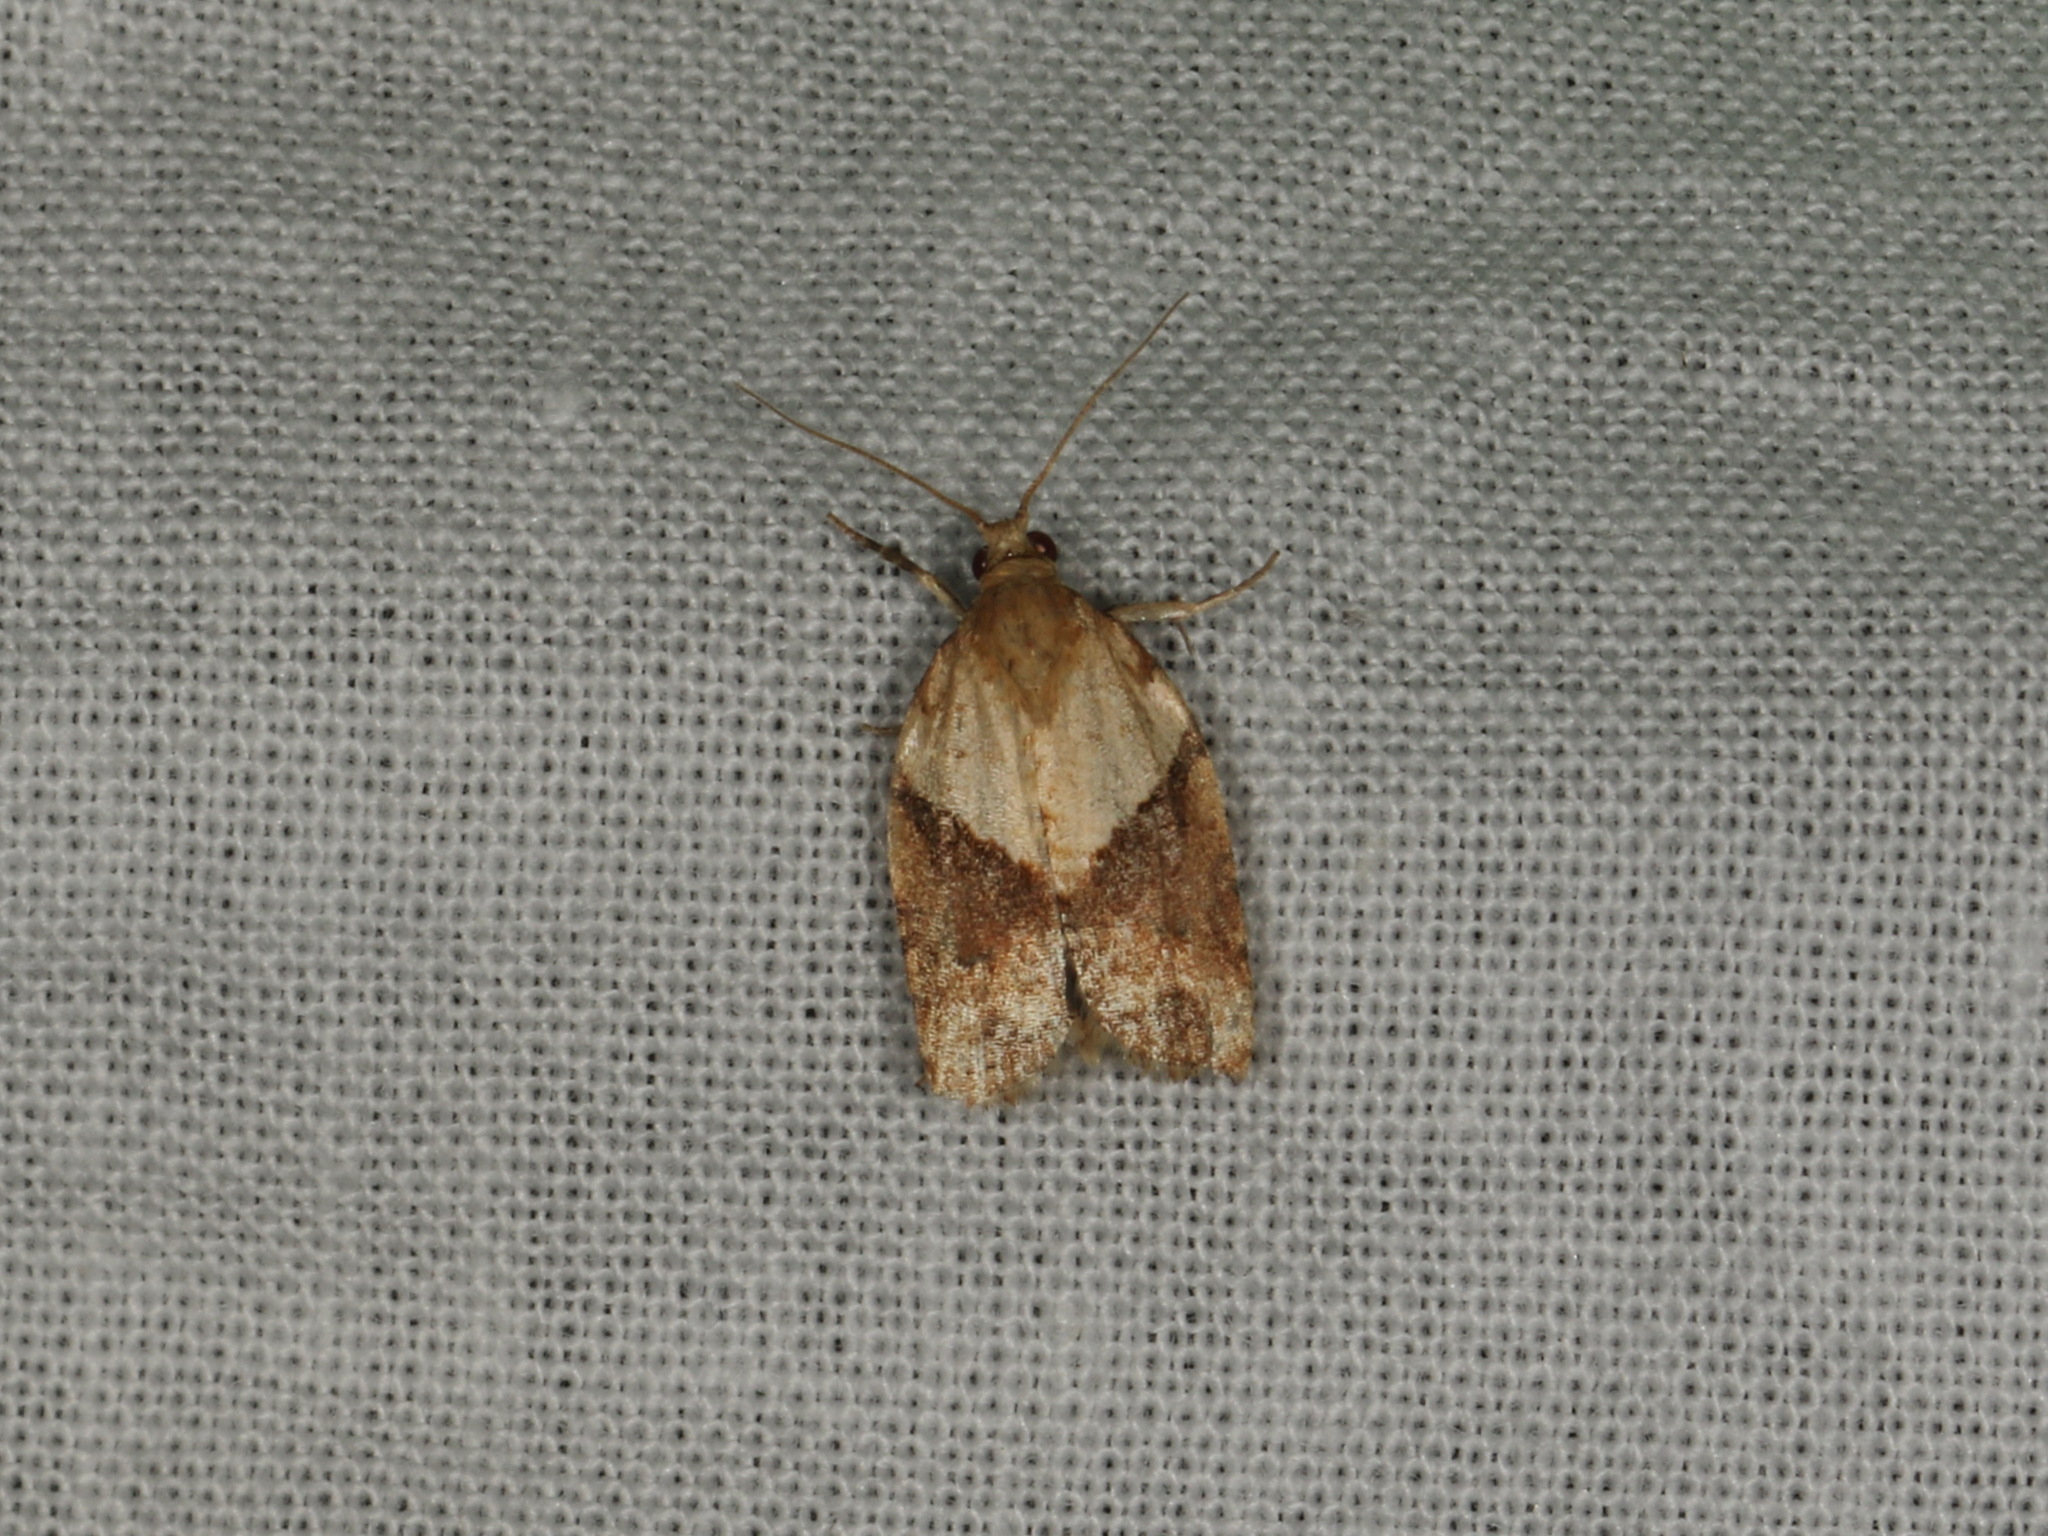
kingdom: Animalia
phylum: Arthropoda
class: Insecta
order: Lepidoptera
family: Tortricidae
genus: Epiphyas
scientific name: Epiphyas postvittana
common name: Light brown apple moth
